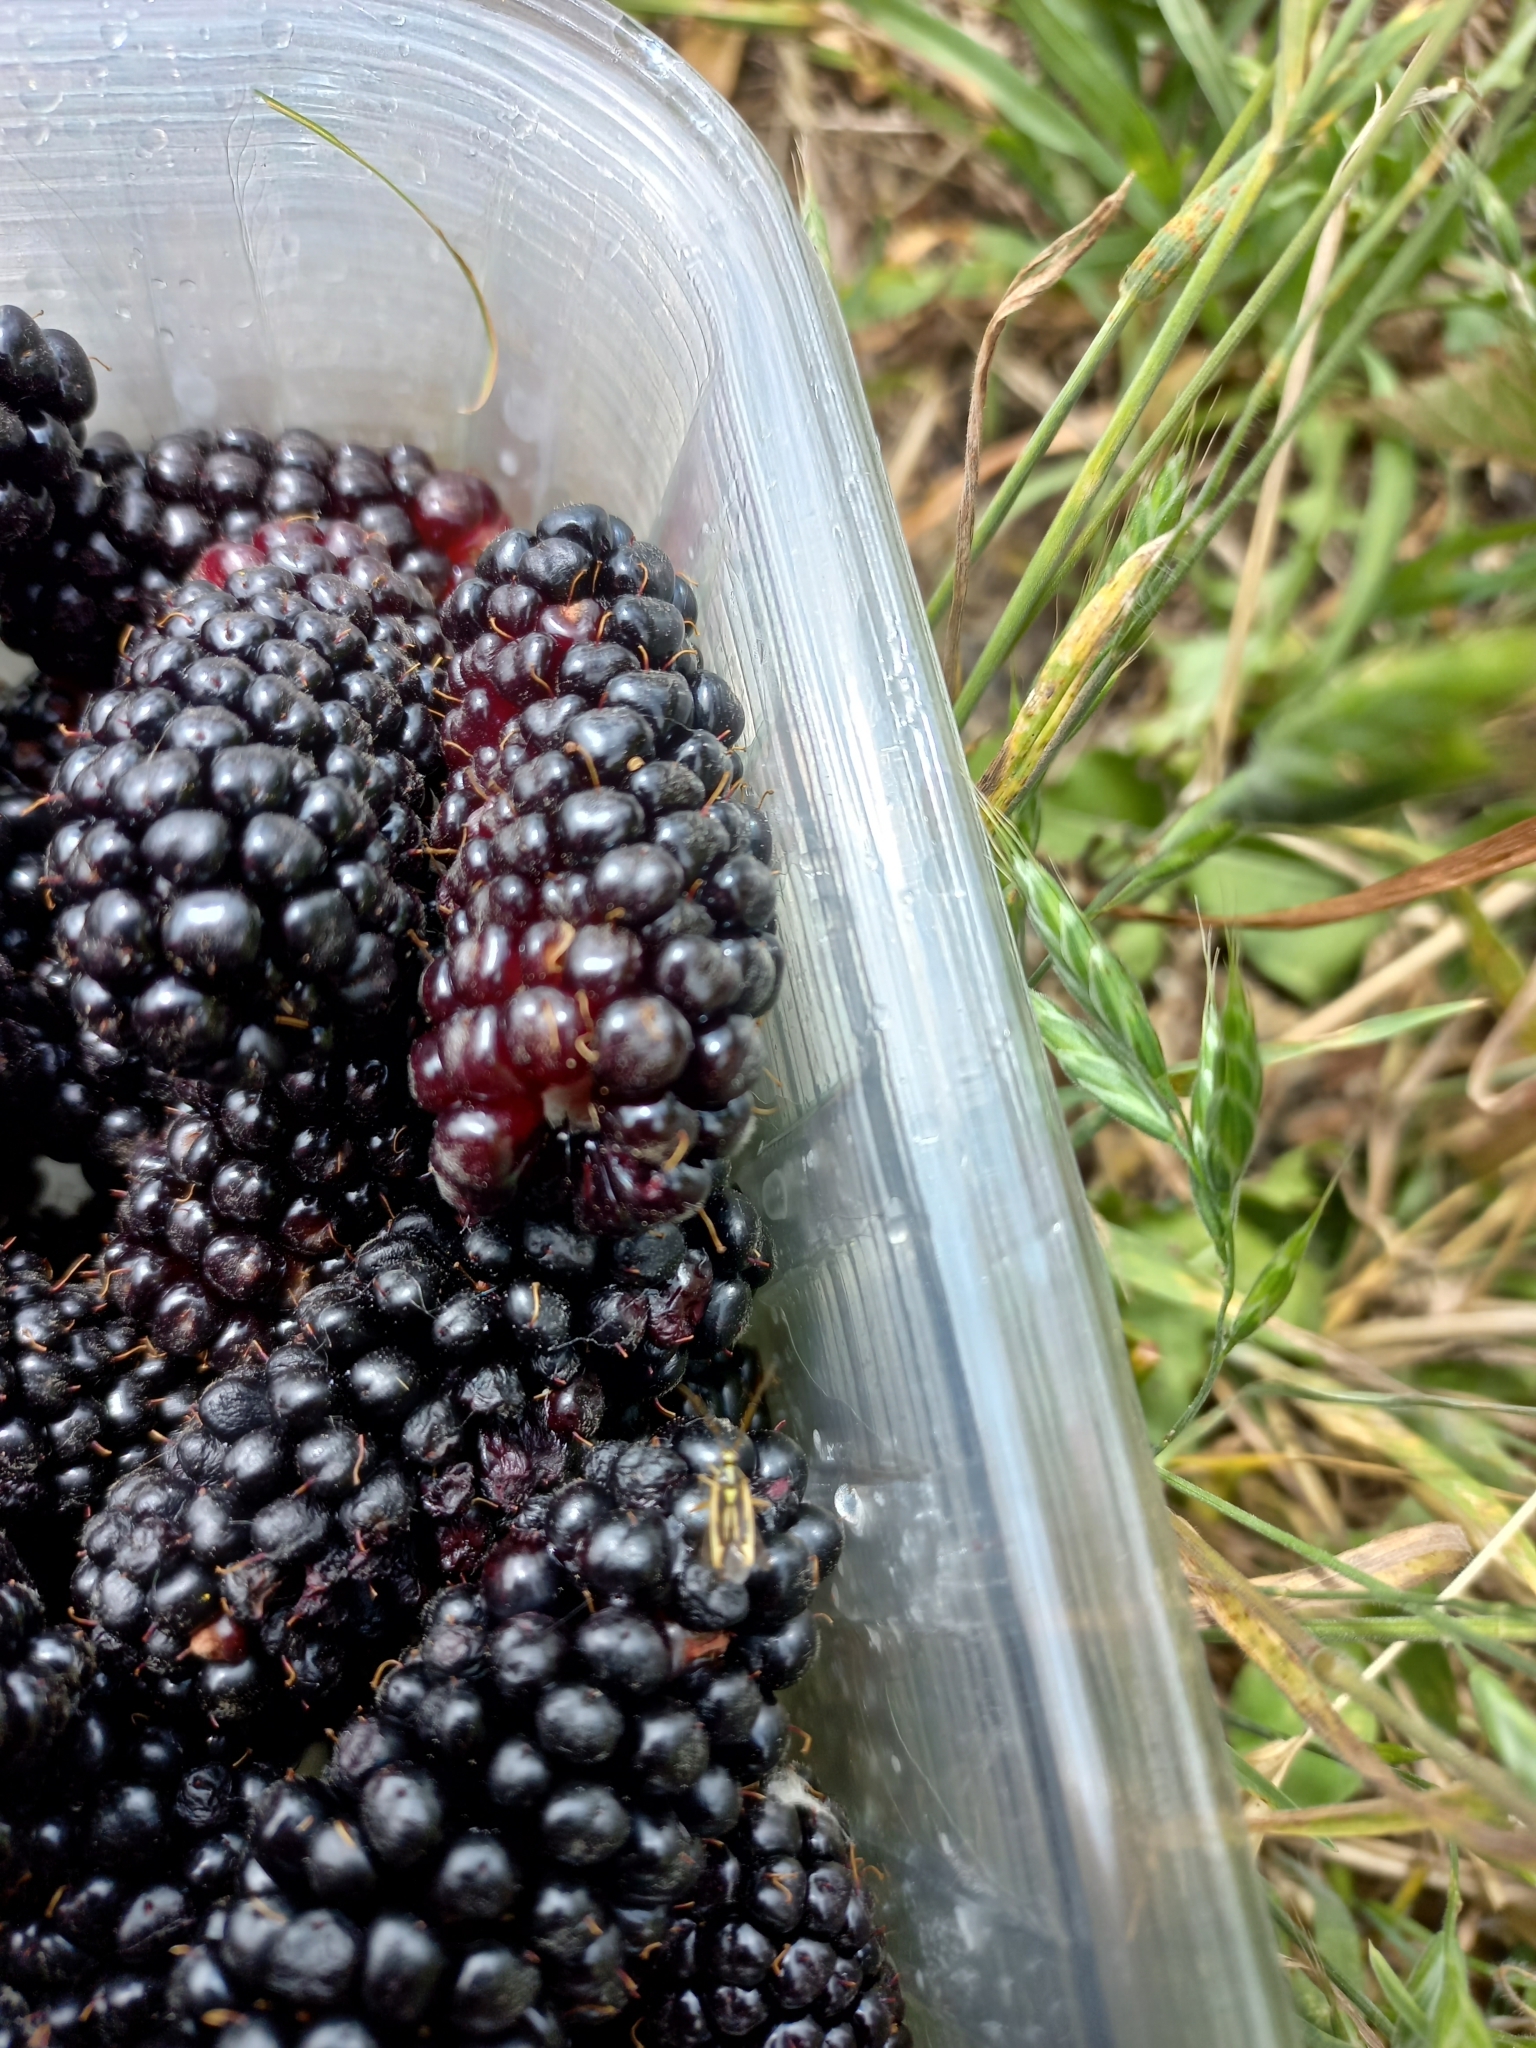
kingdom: Animalia
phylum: Arthropoda
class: Insecta
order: Hemiptera
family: Miridae
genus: Stenotus
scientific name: Stenotus binotatus
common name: Plant bug
